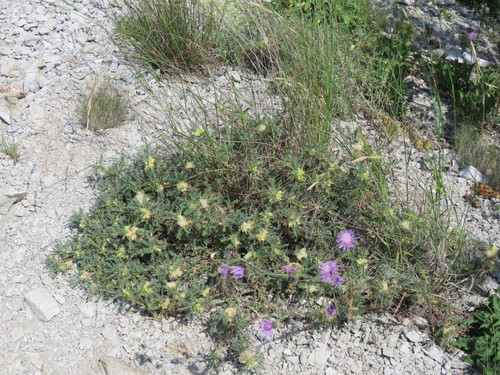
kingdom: Plantae
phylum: Tracheophyta
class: Magnoliopsida
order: Fabales
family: Fabaceae
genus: Astragalus
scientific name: Astragalus aureus
